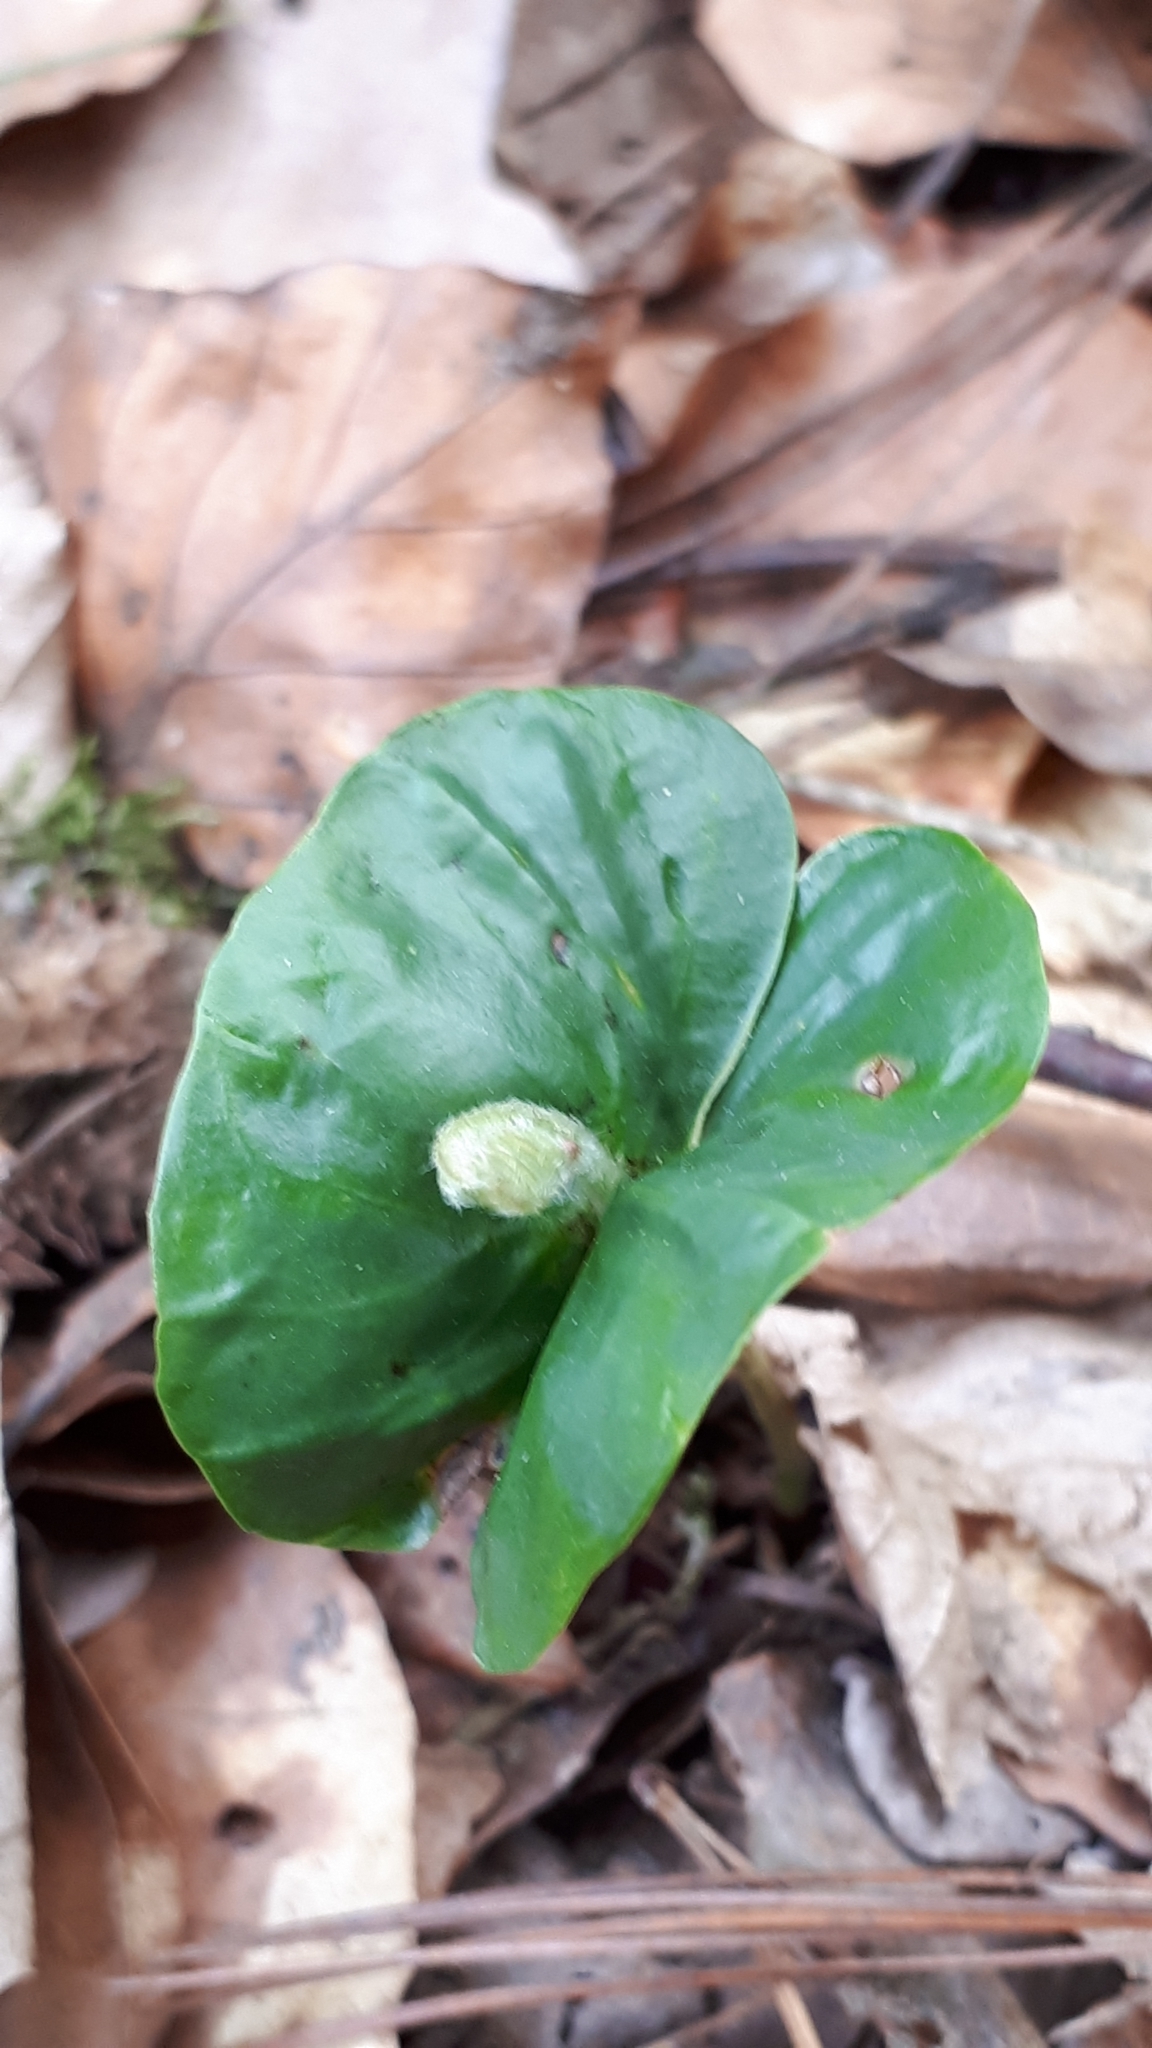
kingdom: Plantae
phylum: Tracheophyta
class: Magnoliopsida
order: Fagales
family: Fagaceae
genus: Fagus
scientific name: Fagus sylvatica
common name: Beech
